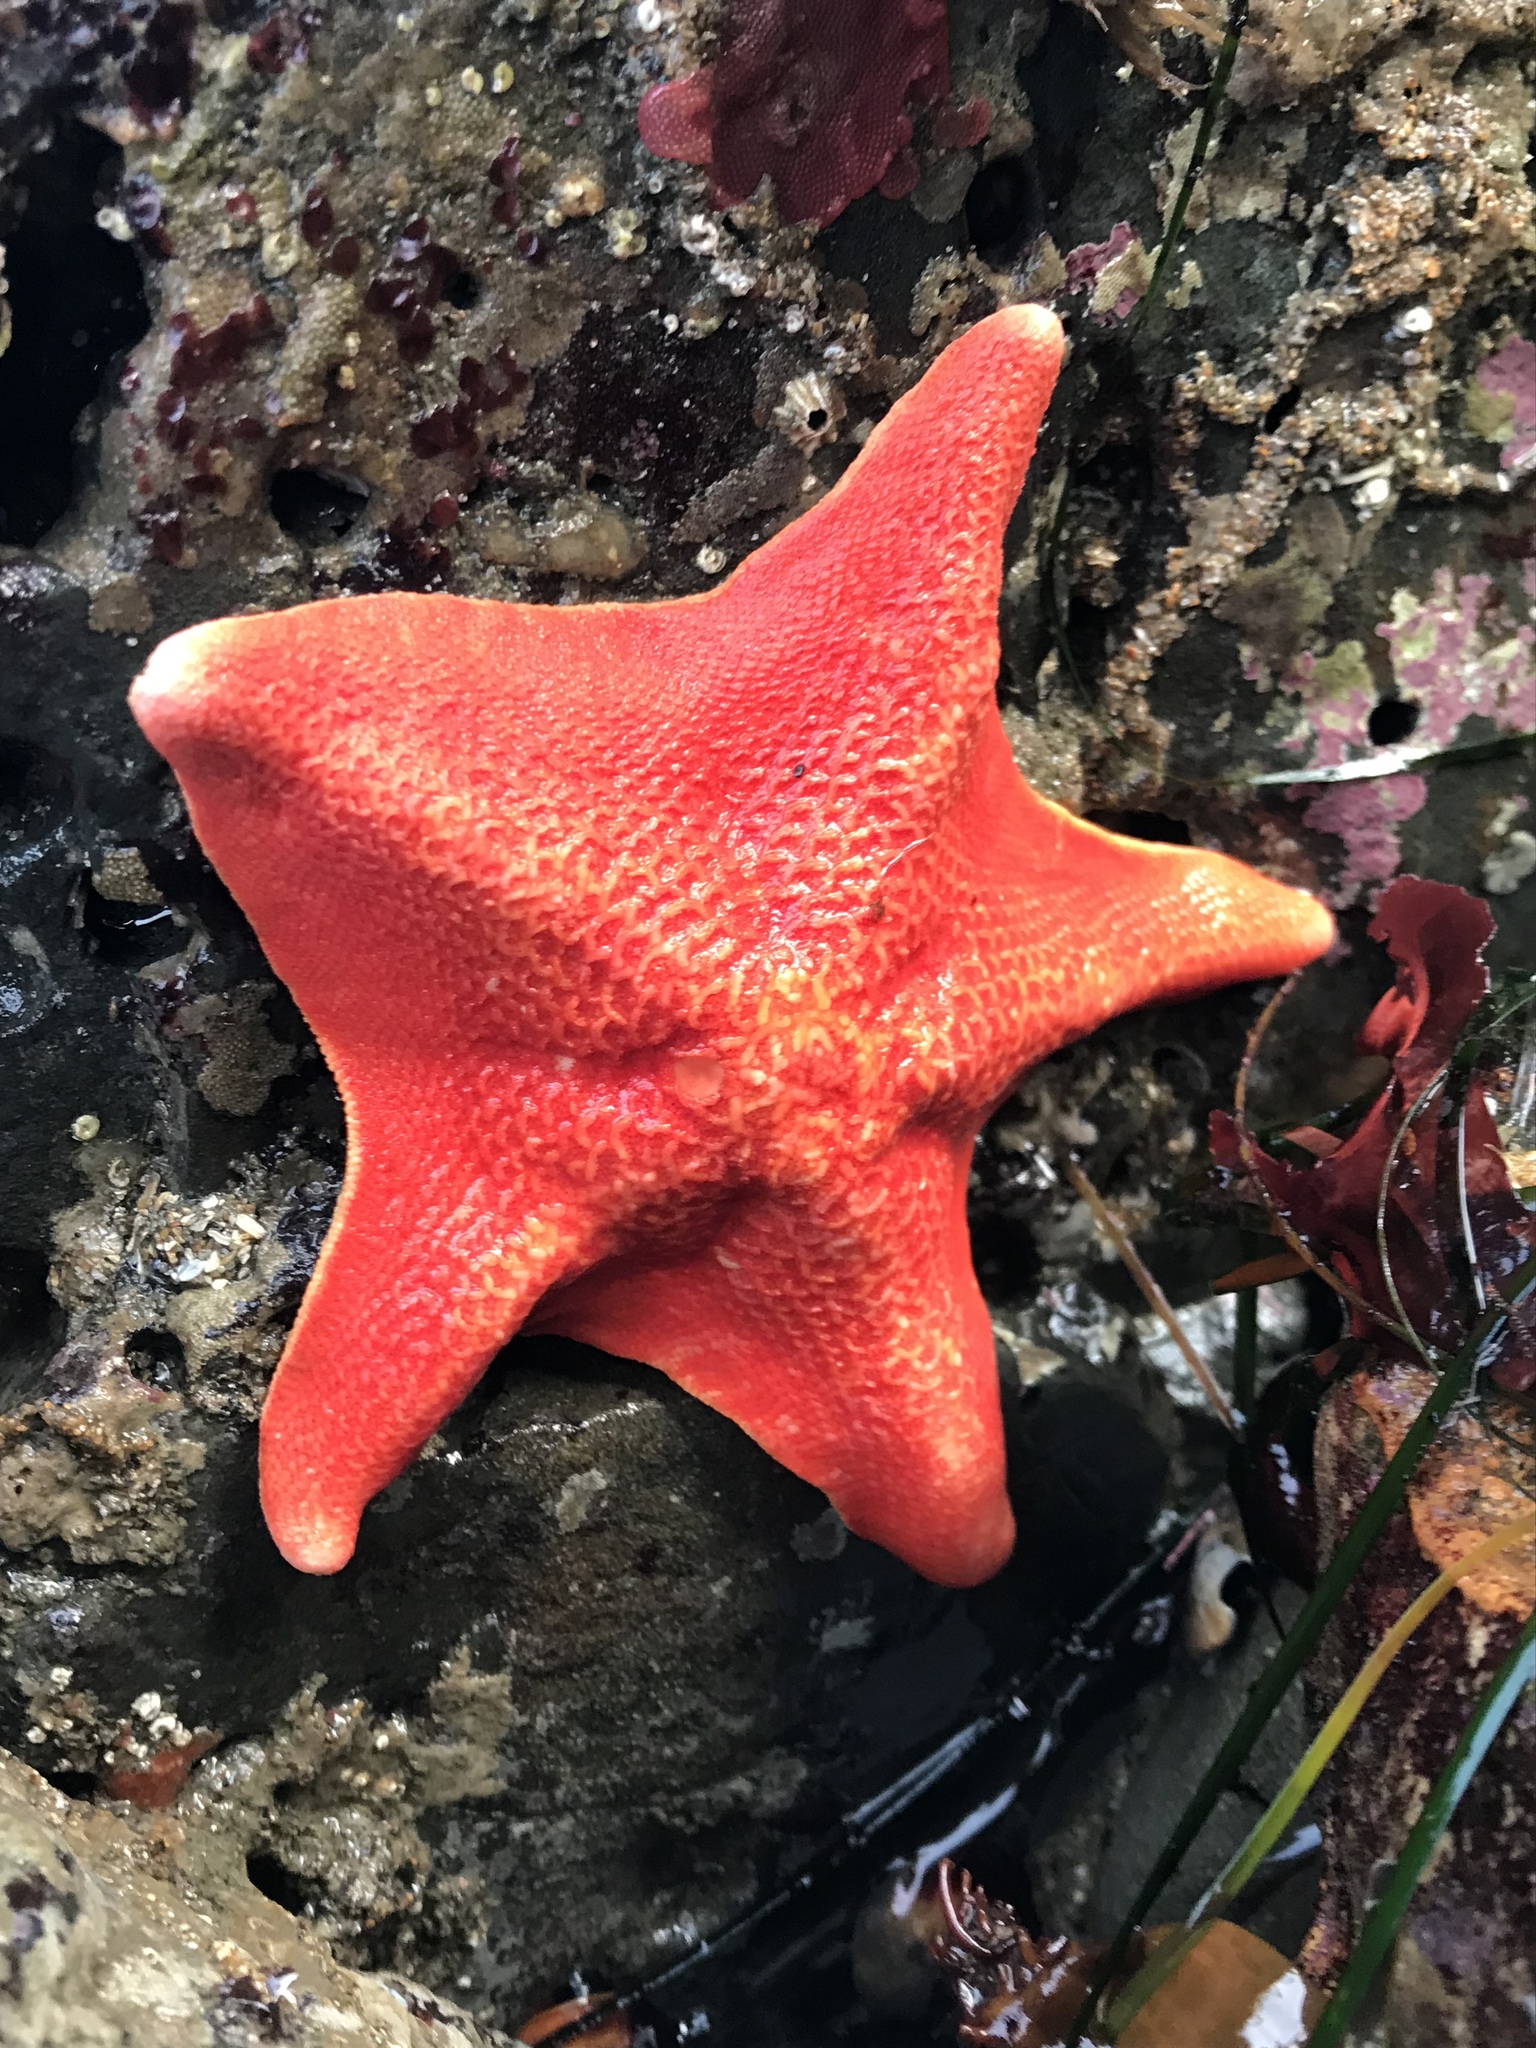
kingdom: Animalia
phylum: Echinodermata
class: Asteroidea
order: Valvatida
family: Asterinidae
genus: Patiria
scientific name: Patiria miniata
